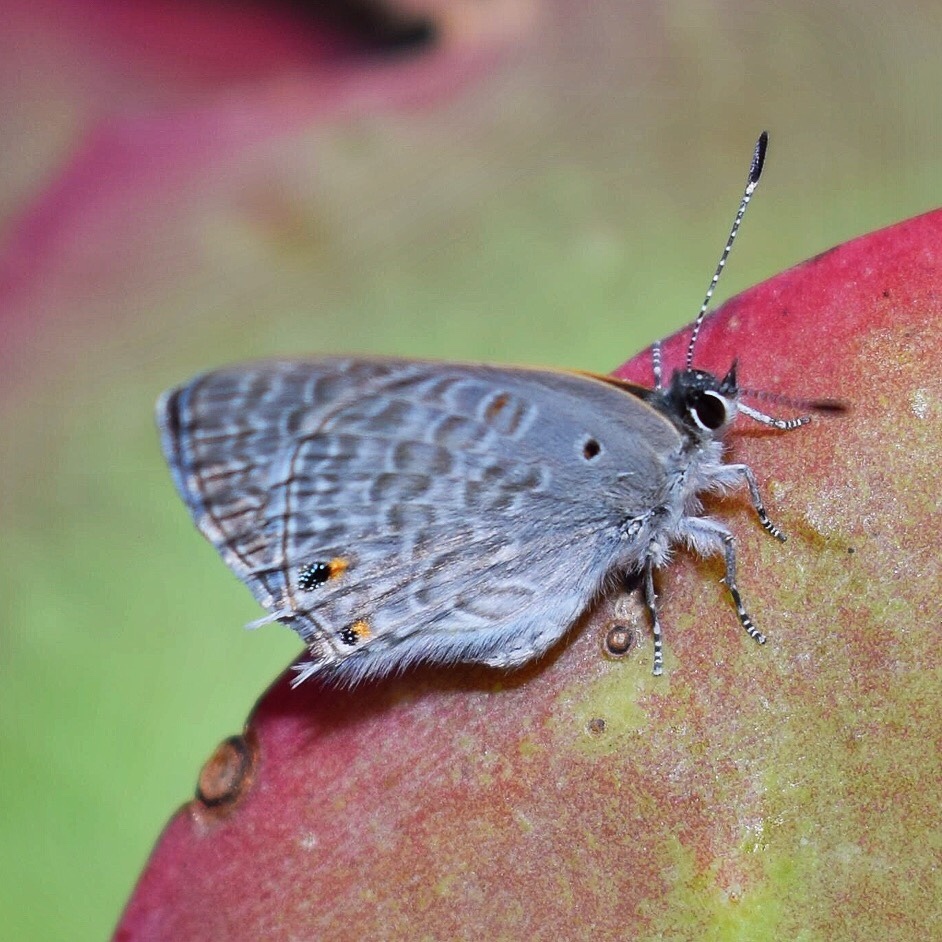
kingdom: Animalia
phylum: Arthropoda
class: Insecta
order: Lepidoptera
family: Lycaenidae
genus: Anthene
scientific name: Anthene livida
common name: Pale hairtail
